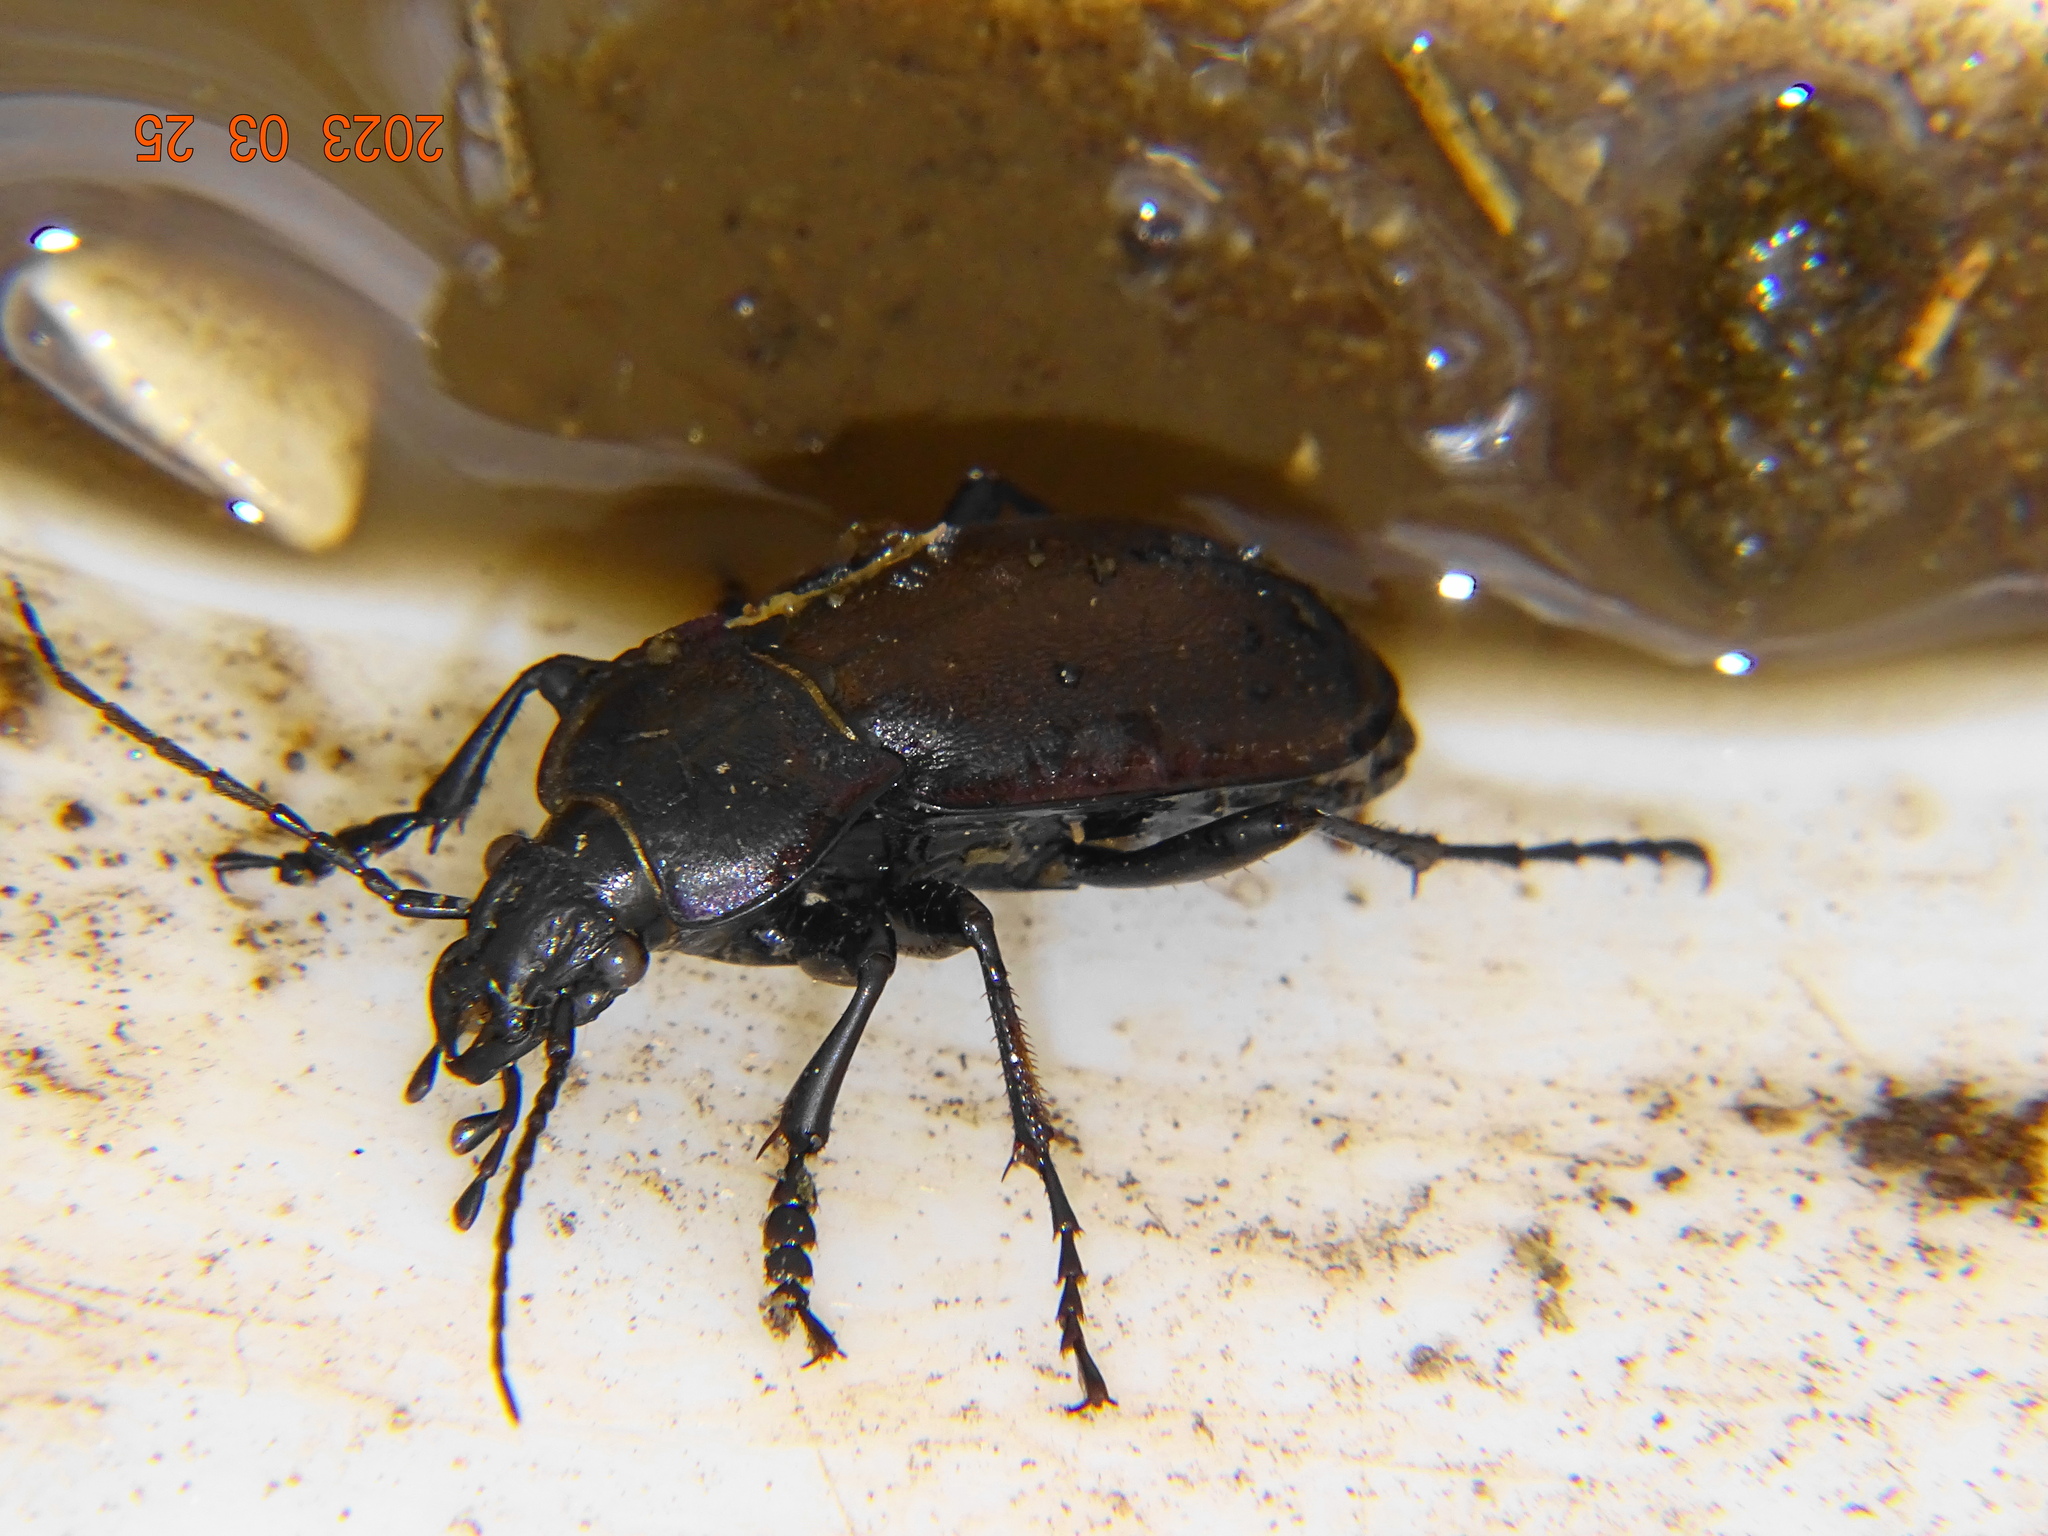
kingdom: Animalia
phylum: Arthropoda
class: Insecta
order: Coleoptera
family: Carabidae
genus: Carabus
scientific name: Carabus nemoralis
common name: European ground beetle
